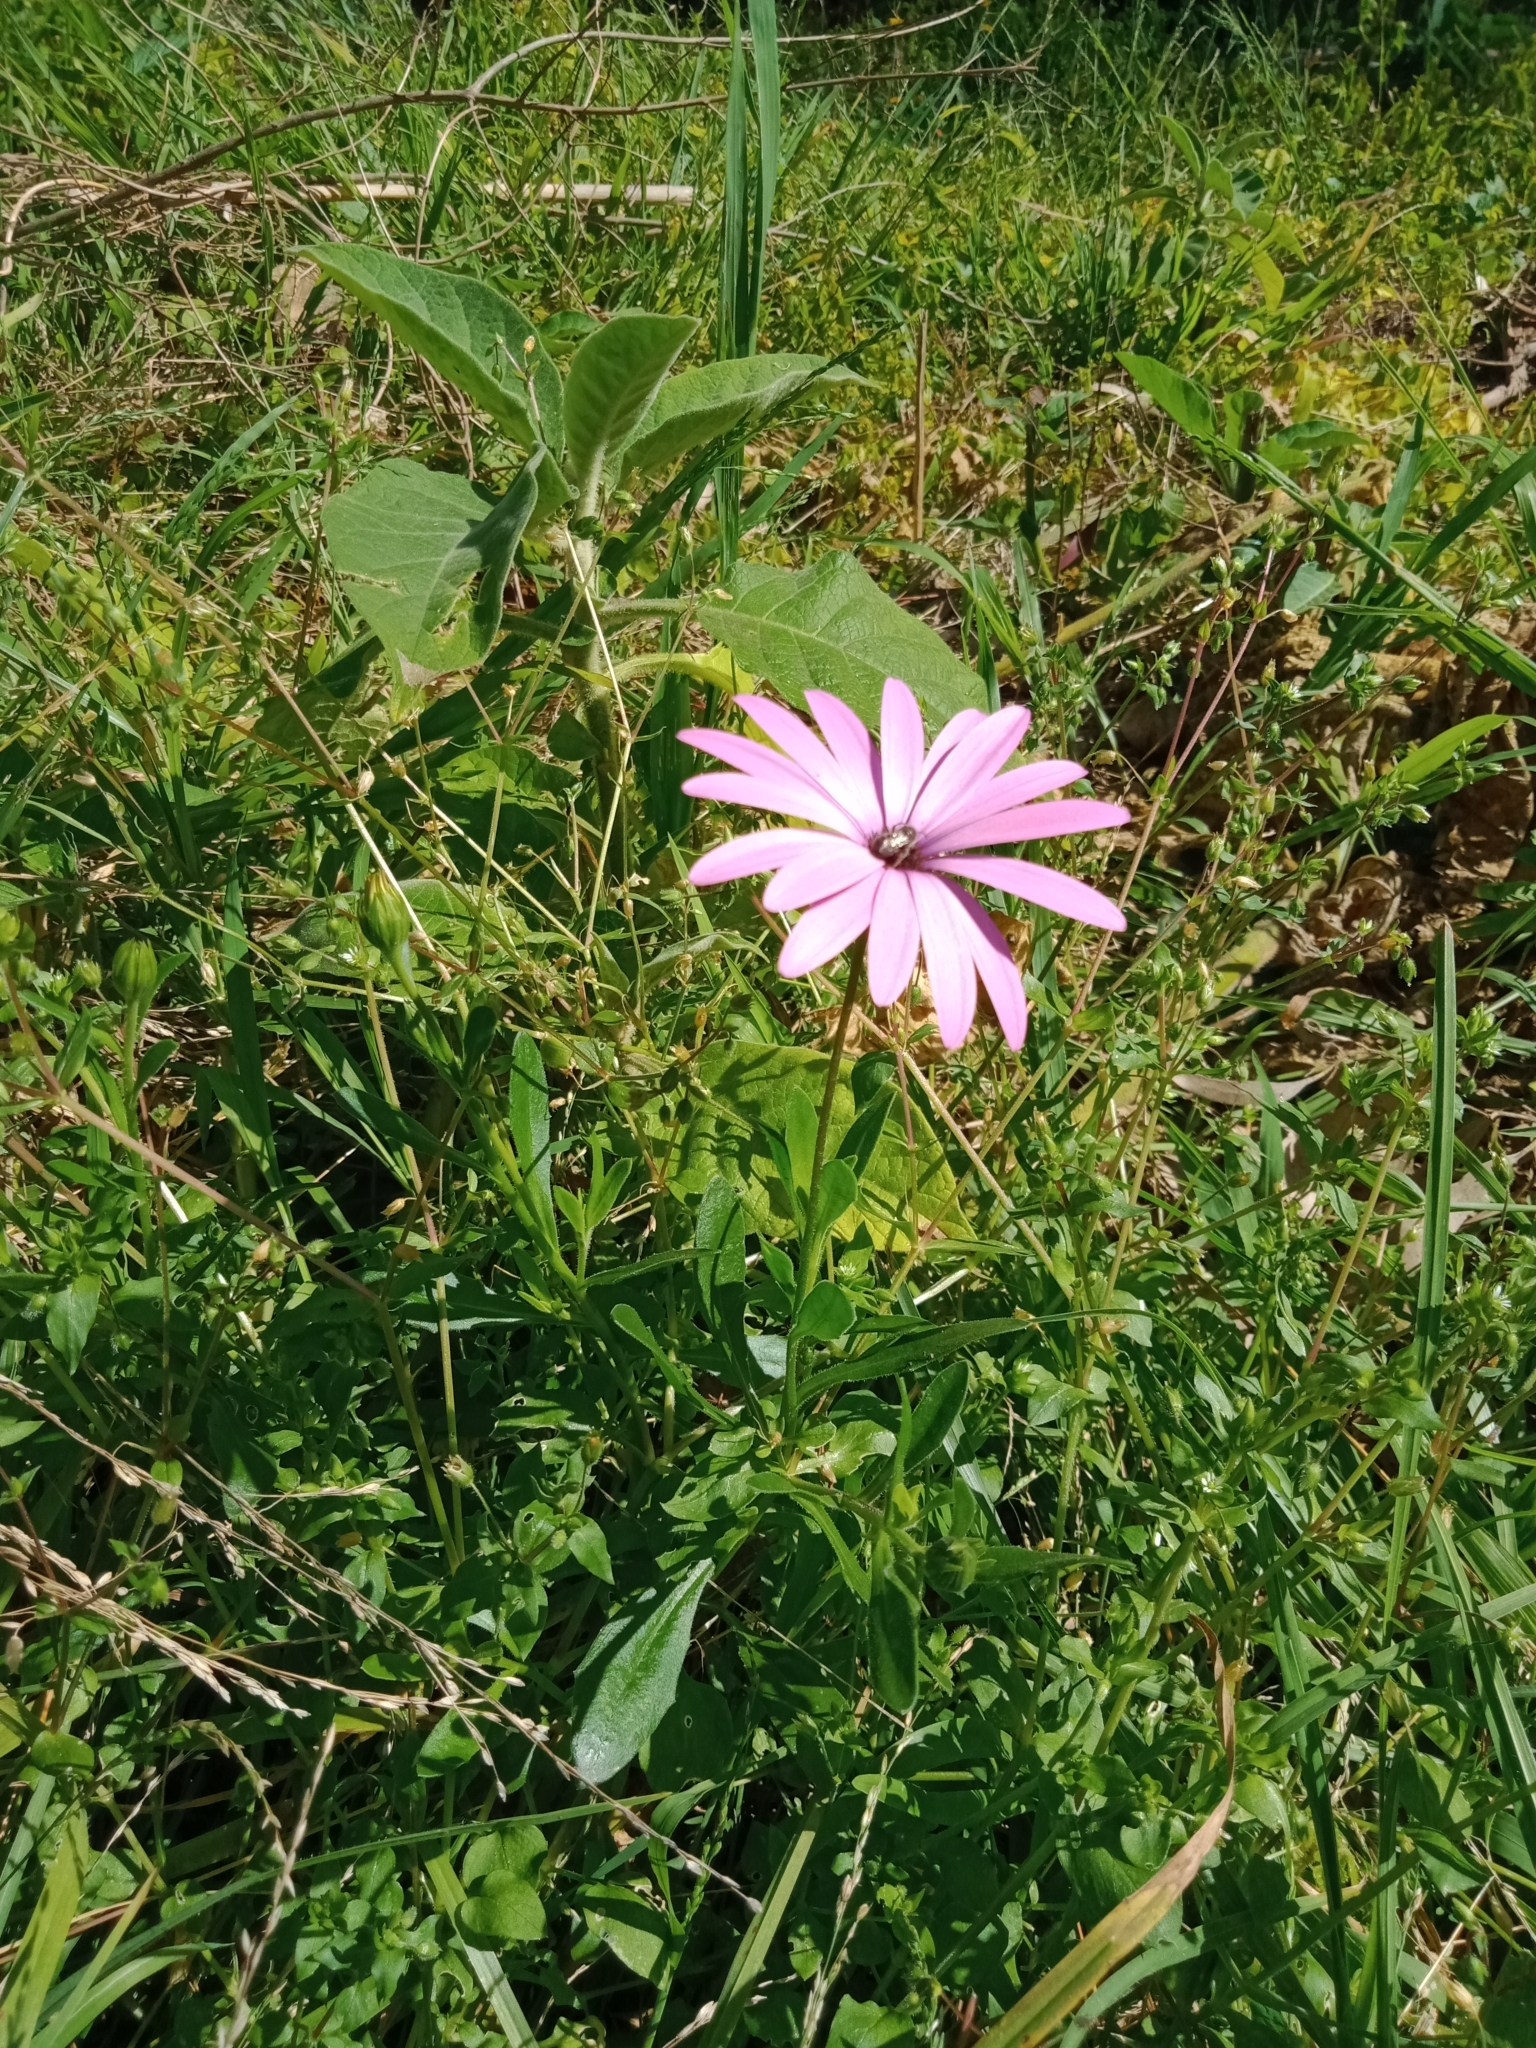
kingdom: Animalia
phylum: Arthropoda
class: Insecta
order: Hymenoptera
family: Halictidae
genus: Lasioglossum
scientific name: Lasioglossum lanarium
